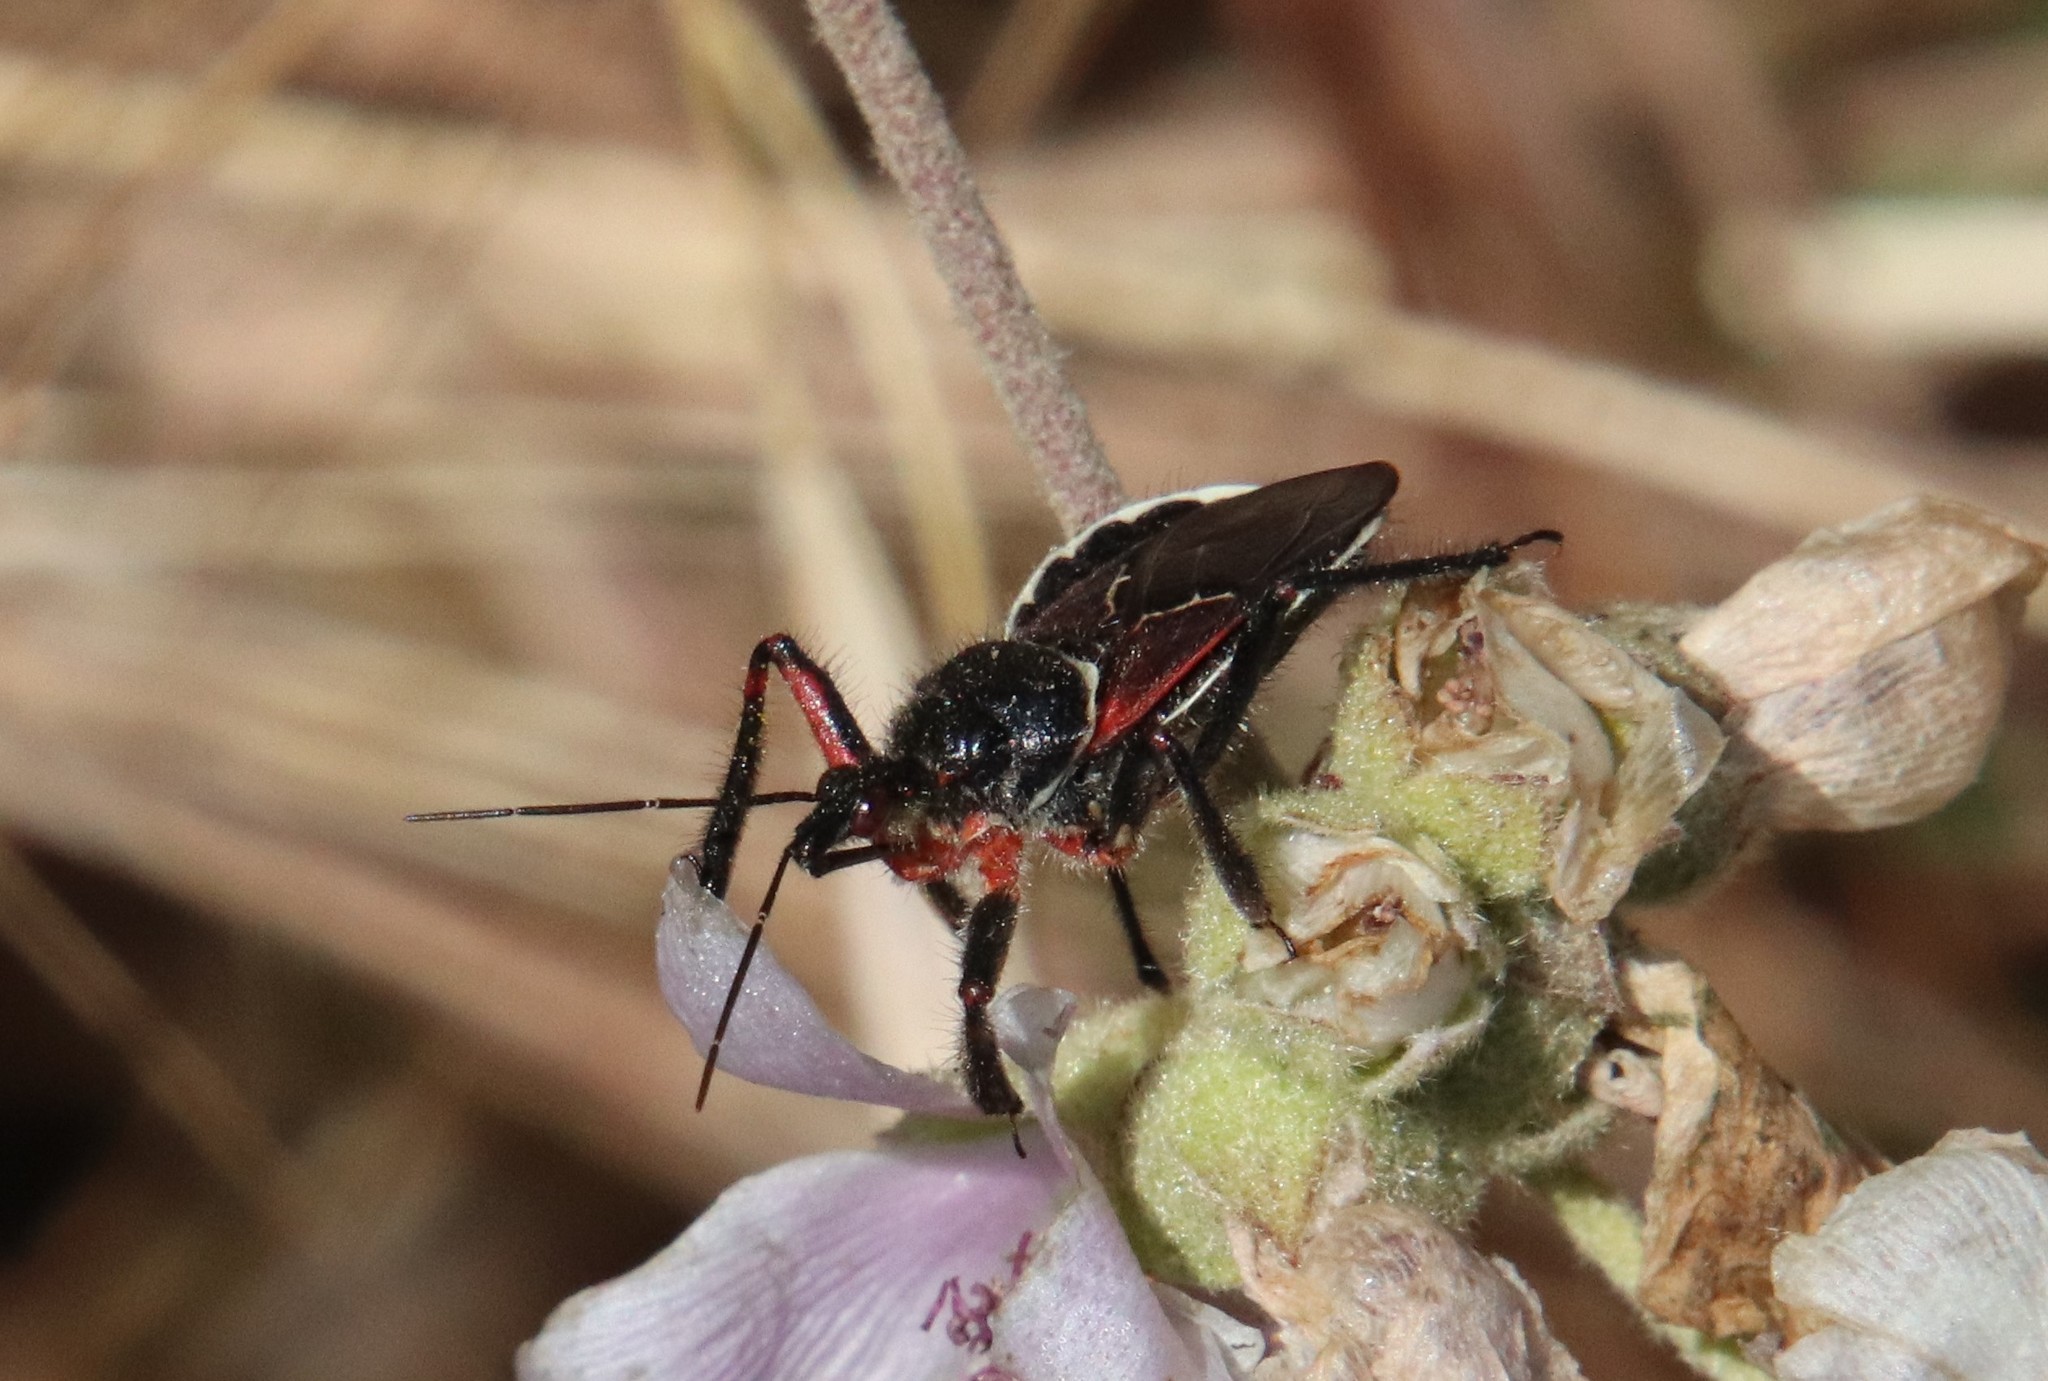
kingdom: Animalia
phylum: Arthropoda
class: Insecta
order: Hemiptera
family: Reduviidae
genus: Apiomerus
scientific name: Apiomerus californicus
